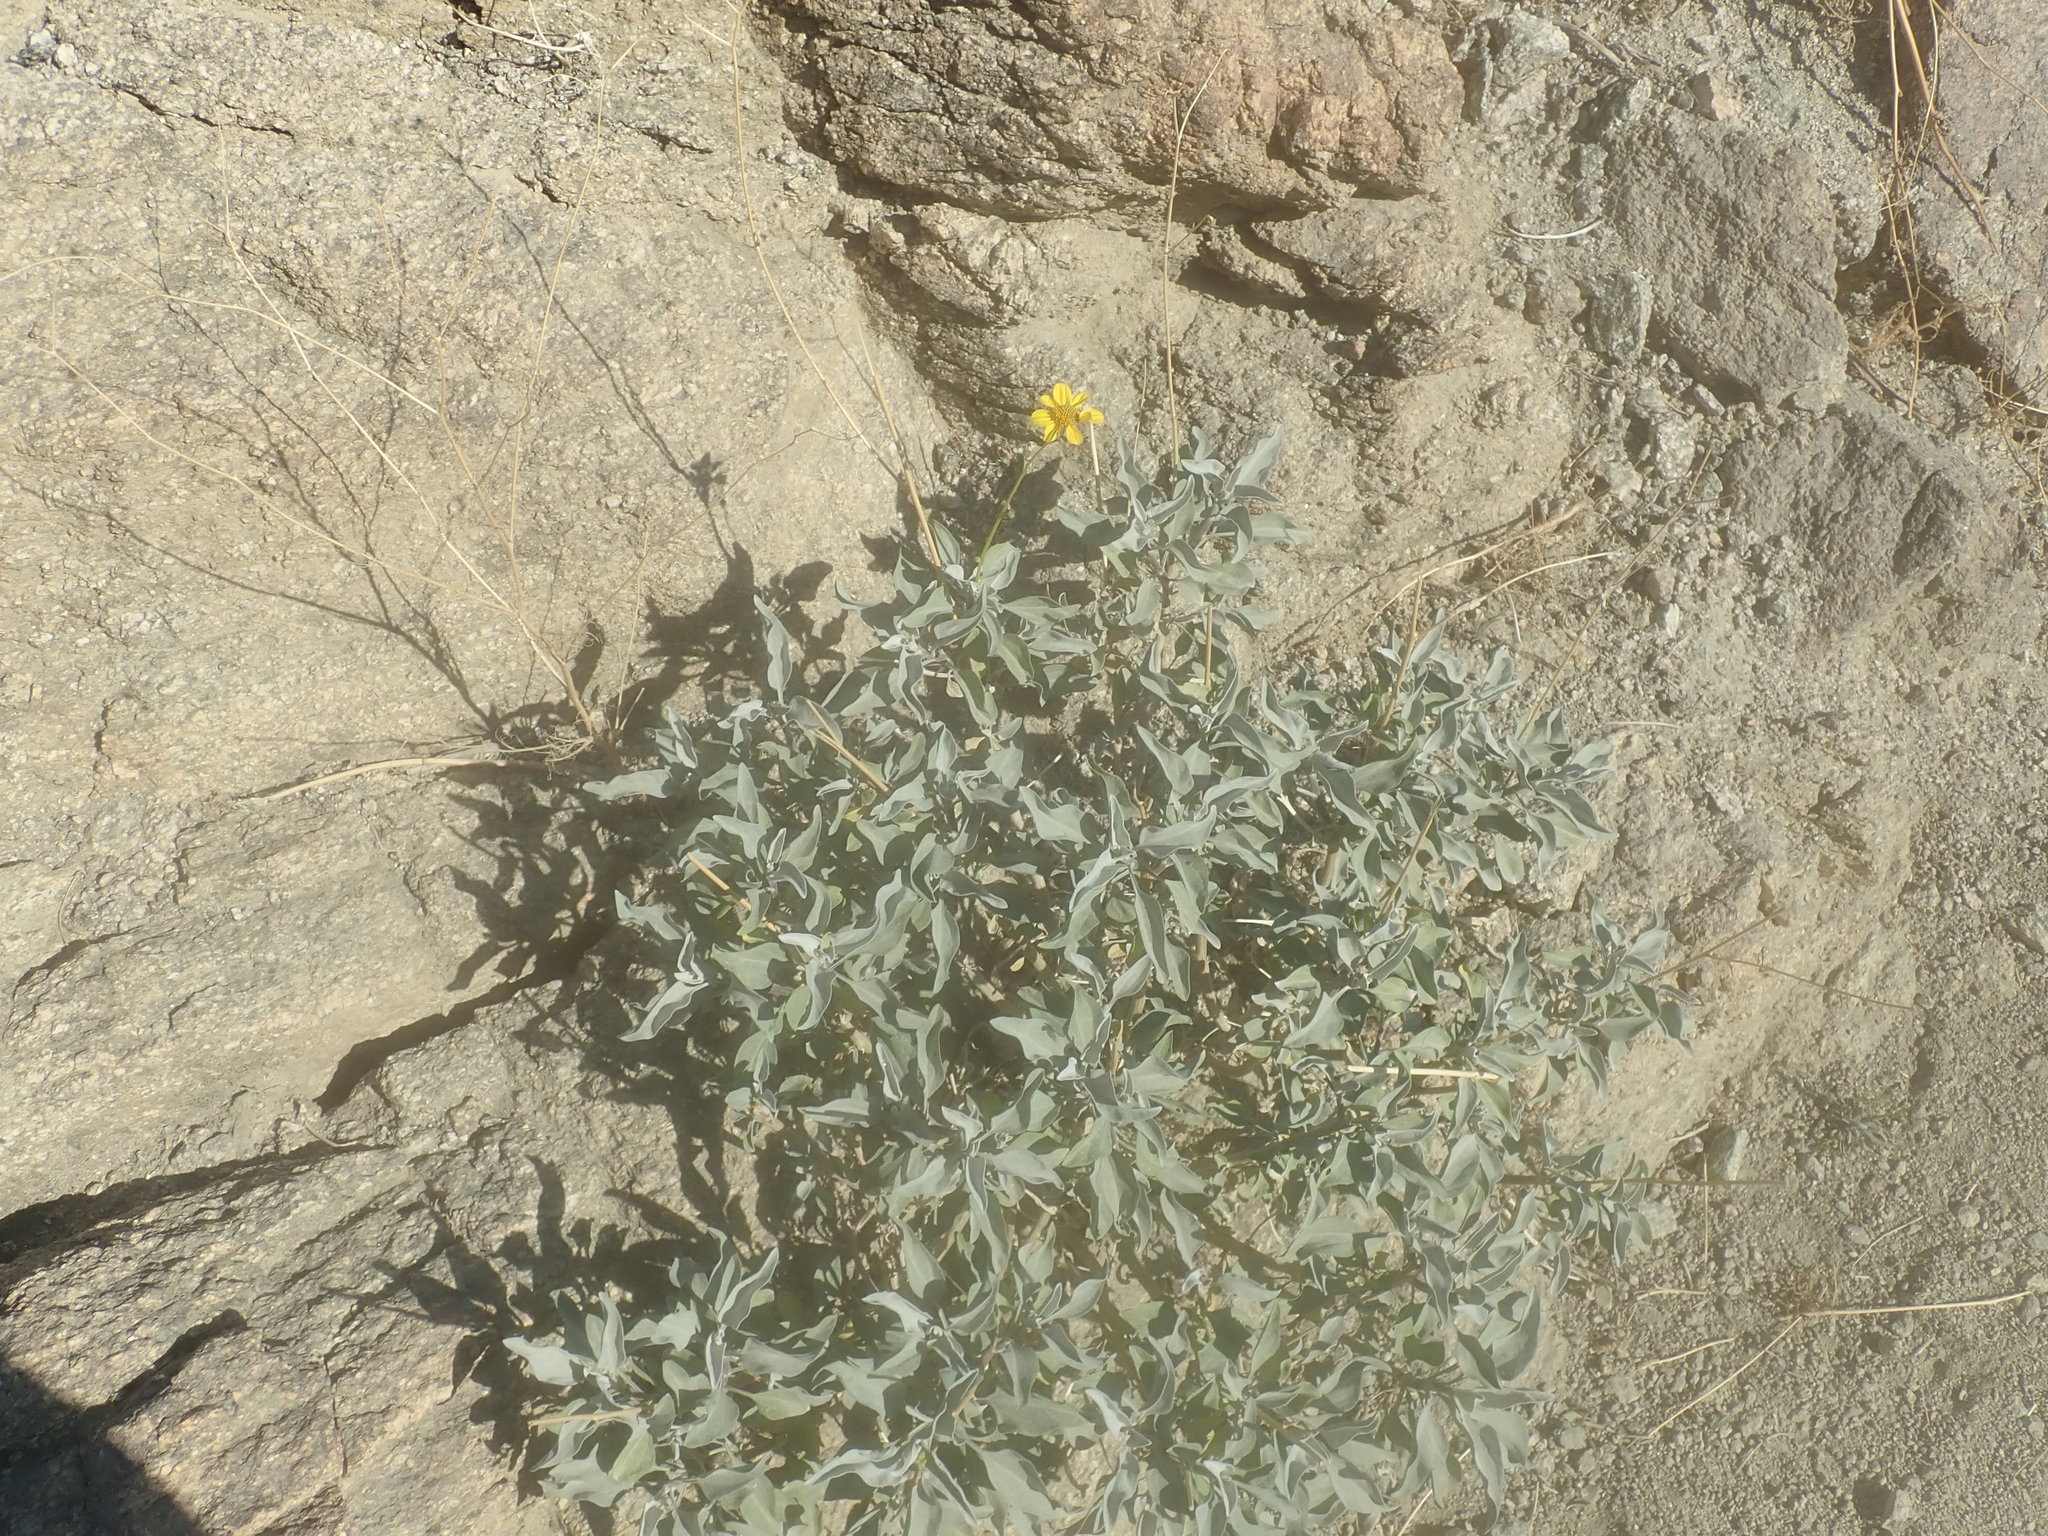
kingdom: Plantae
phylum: Tracheophyta
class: Magnoliopsida
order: Asterales
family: Asteraceae
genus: Encelia
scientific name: Encelia farinosa
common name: Brittlebush
